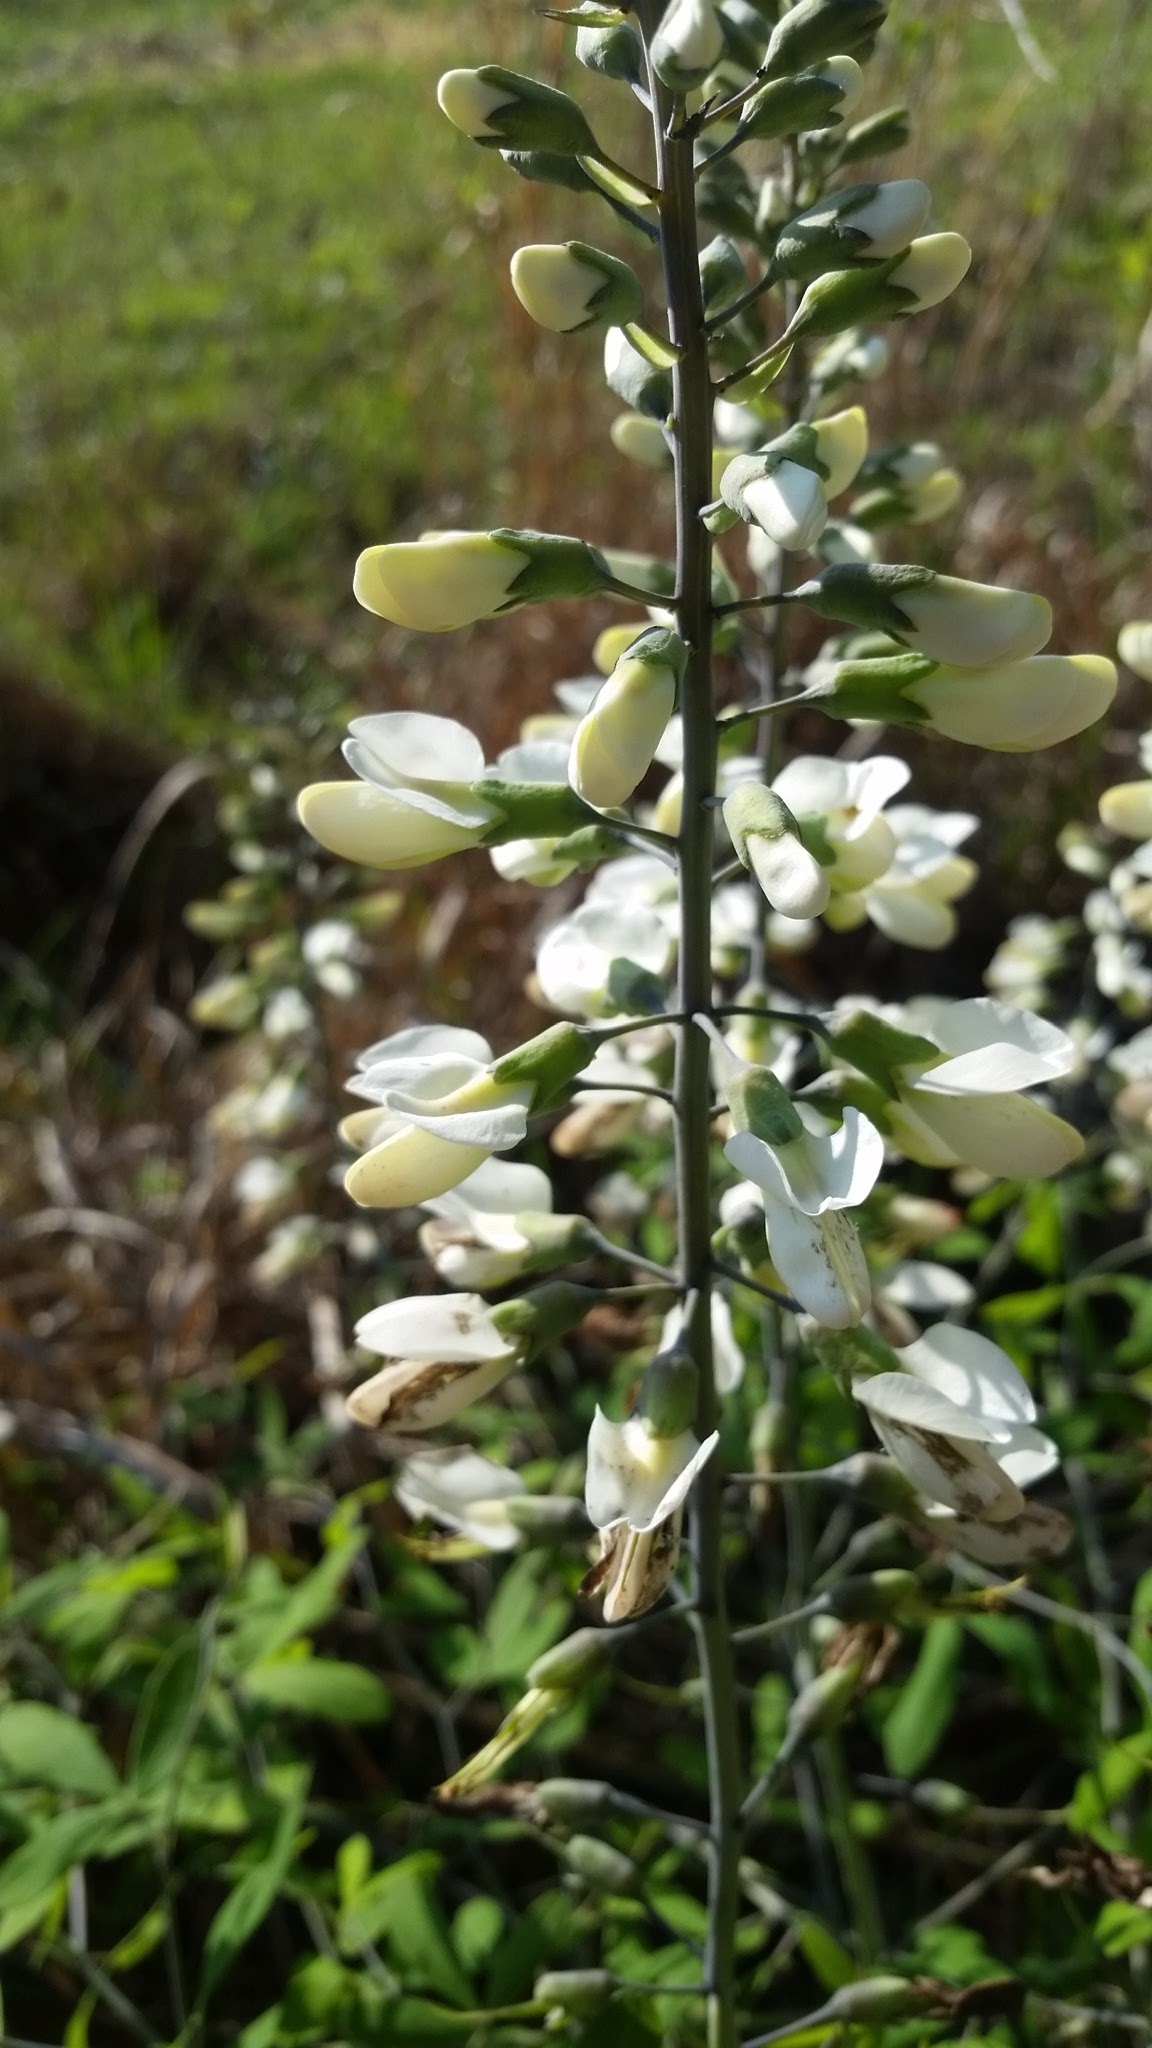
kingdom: Plantae
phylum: Tracheophyta
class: Magnoliopsida
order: Fabales
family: Fabaceae
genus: Baptisia
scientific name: Baptisia alba
